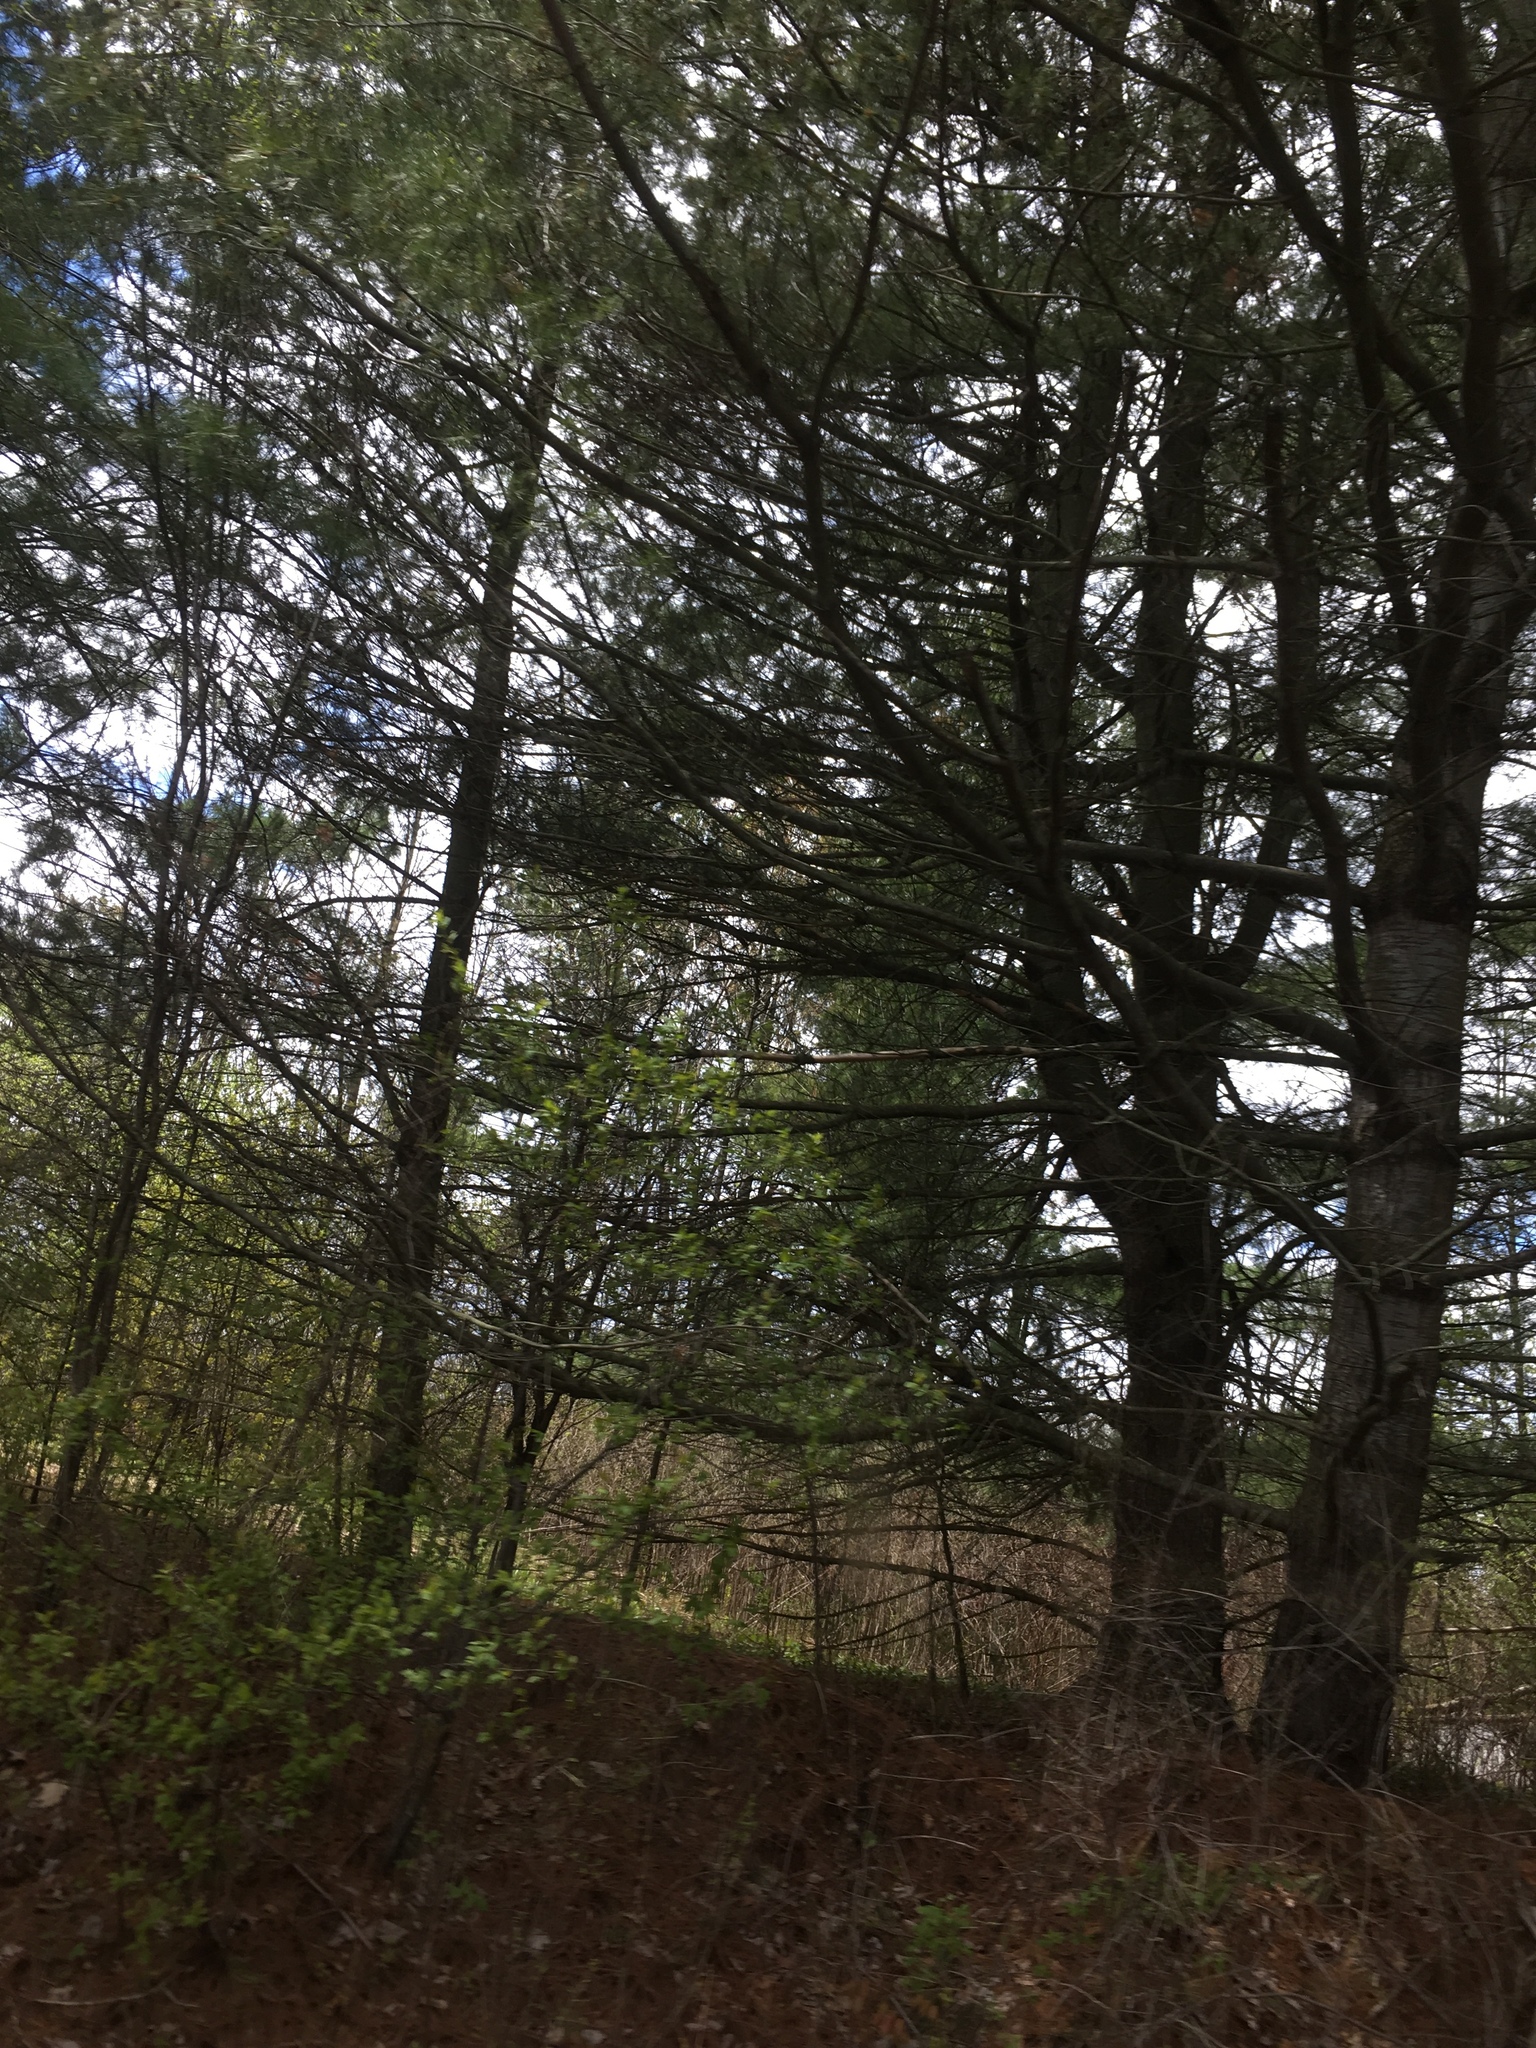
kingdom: Plantae
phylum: Tracheophyta
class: Pinopsida
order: Pinales
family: Pinaceae
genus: Pinus
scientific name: Pinus strobus
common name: Weymouth pine
